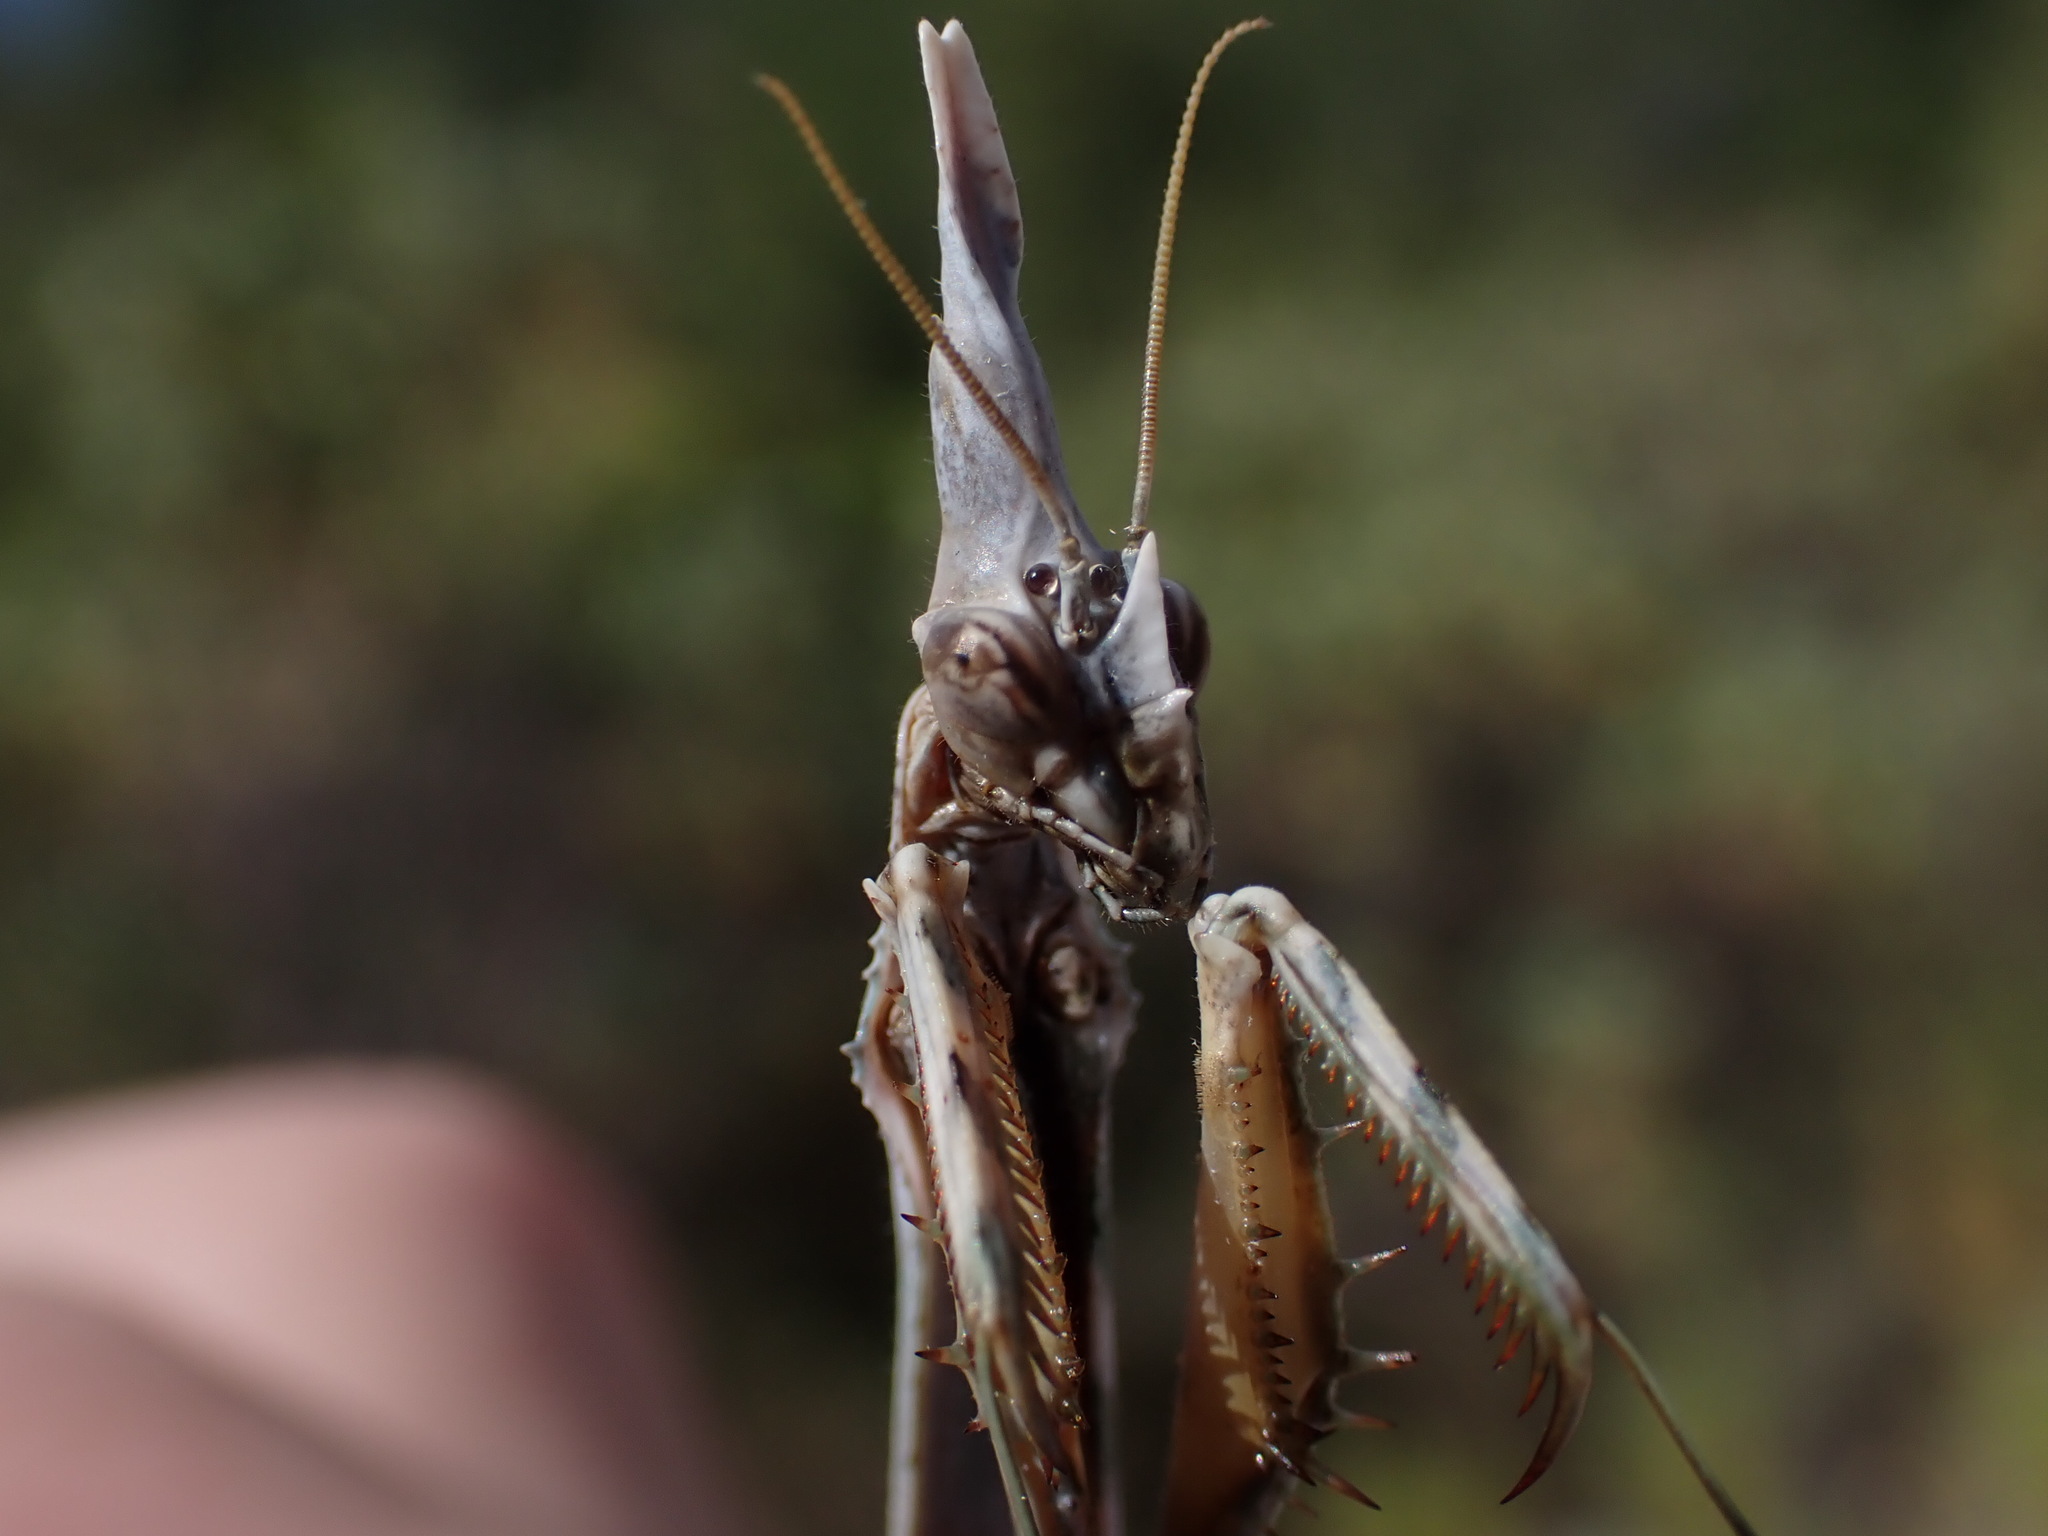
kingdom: Animalia
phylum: Arthropoda
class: Insecta
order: Mantodea
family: Empusidae
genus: Empusa
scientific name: Empusa pennata
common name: Conehead mantis
